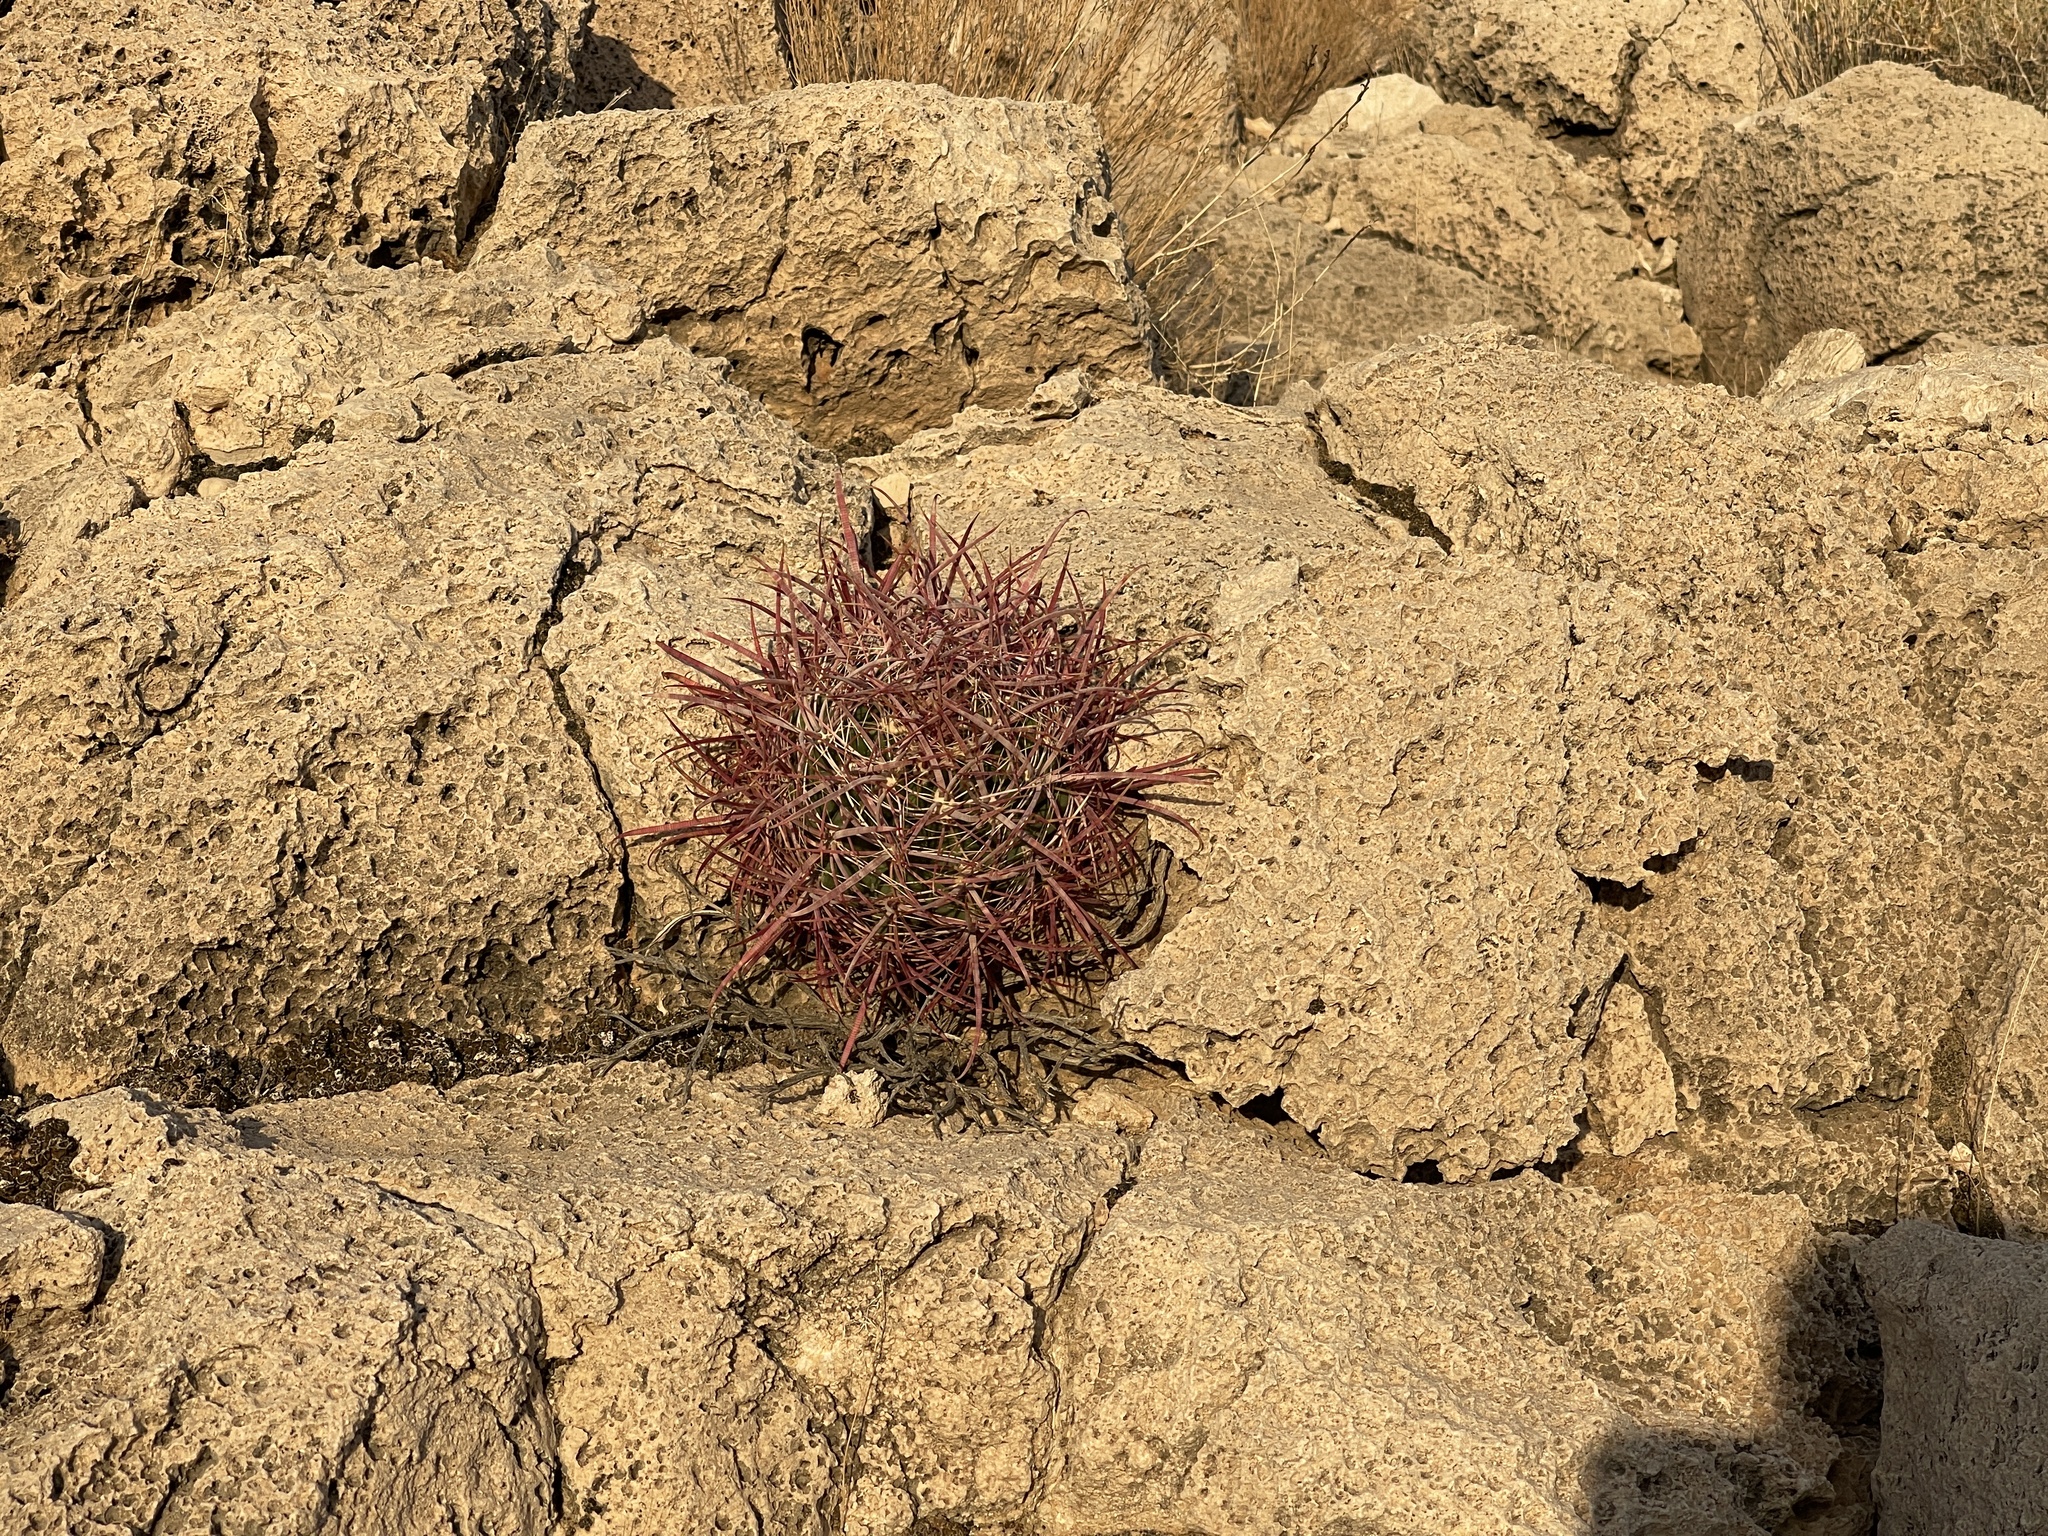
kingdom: Plantae
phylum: Tracheophyta
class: Magnoliopsida
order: Caryophyllales
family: Cactaceae
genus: Ferocactus
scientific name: Ferocactus cylindraceus
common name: California barrel cactus
